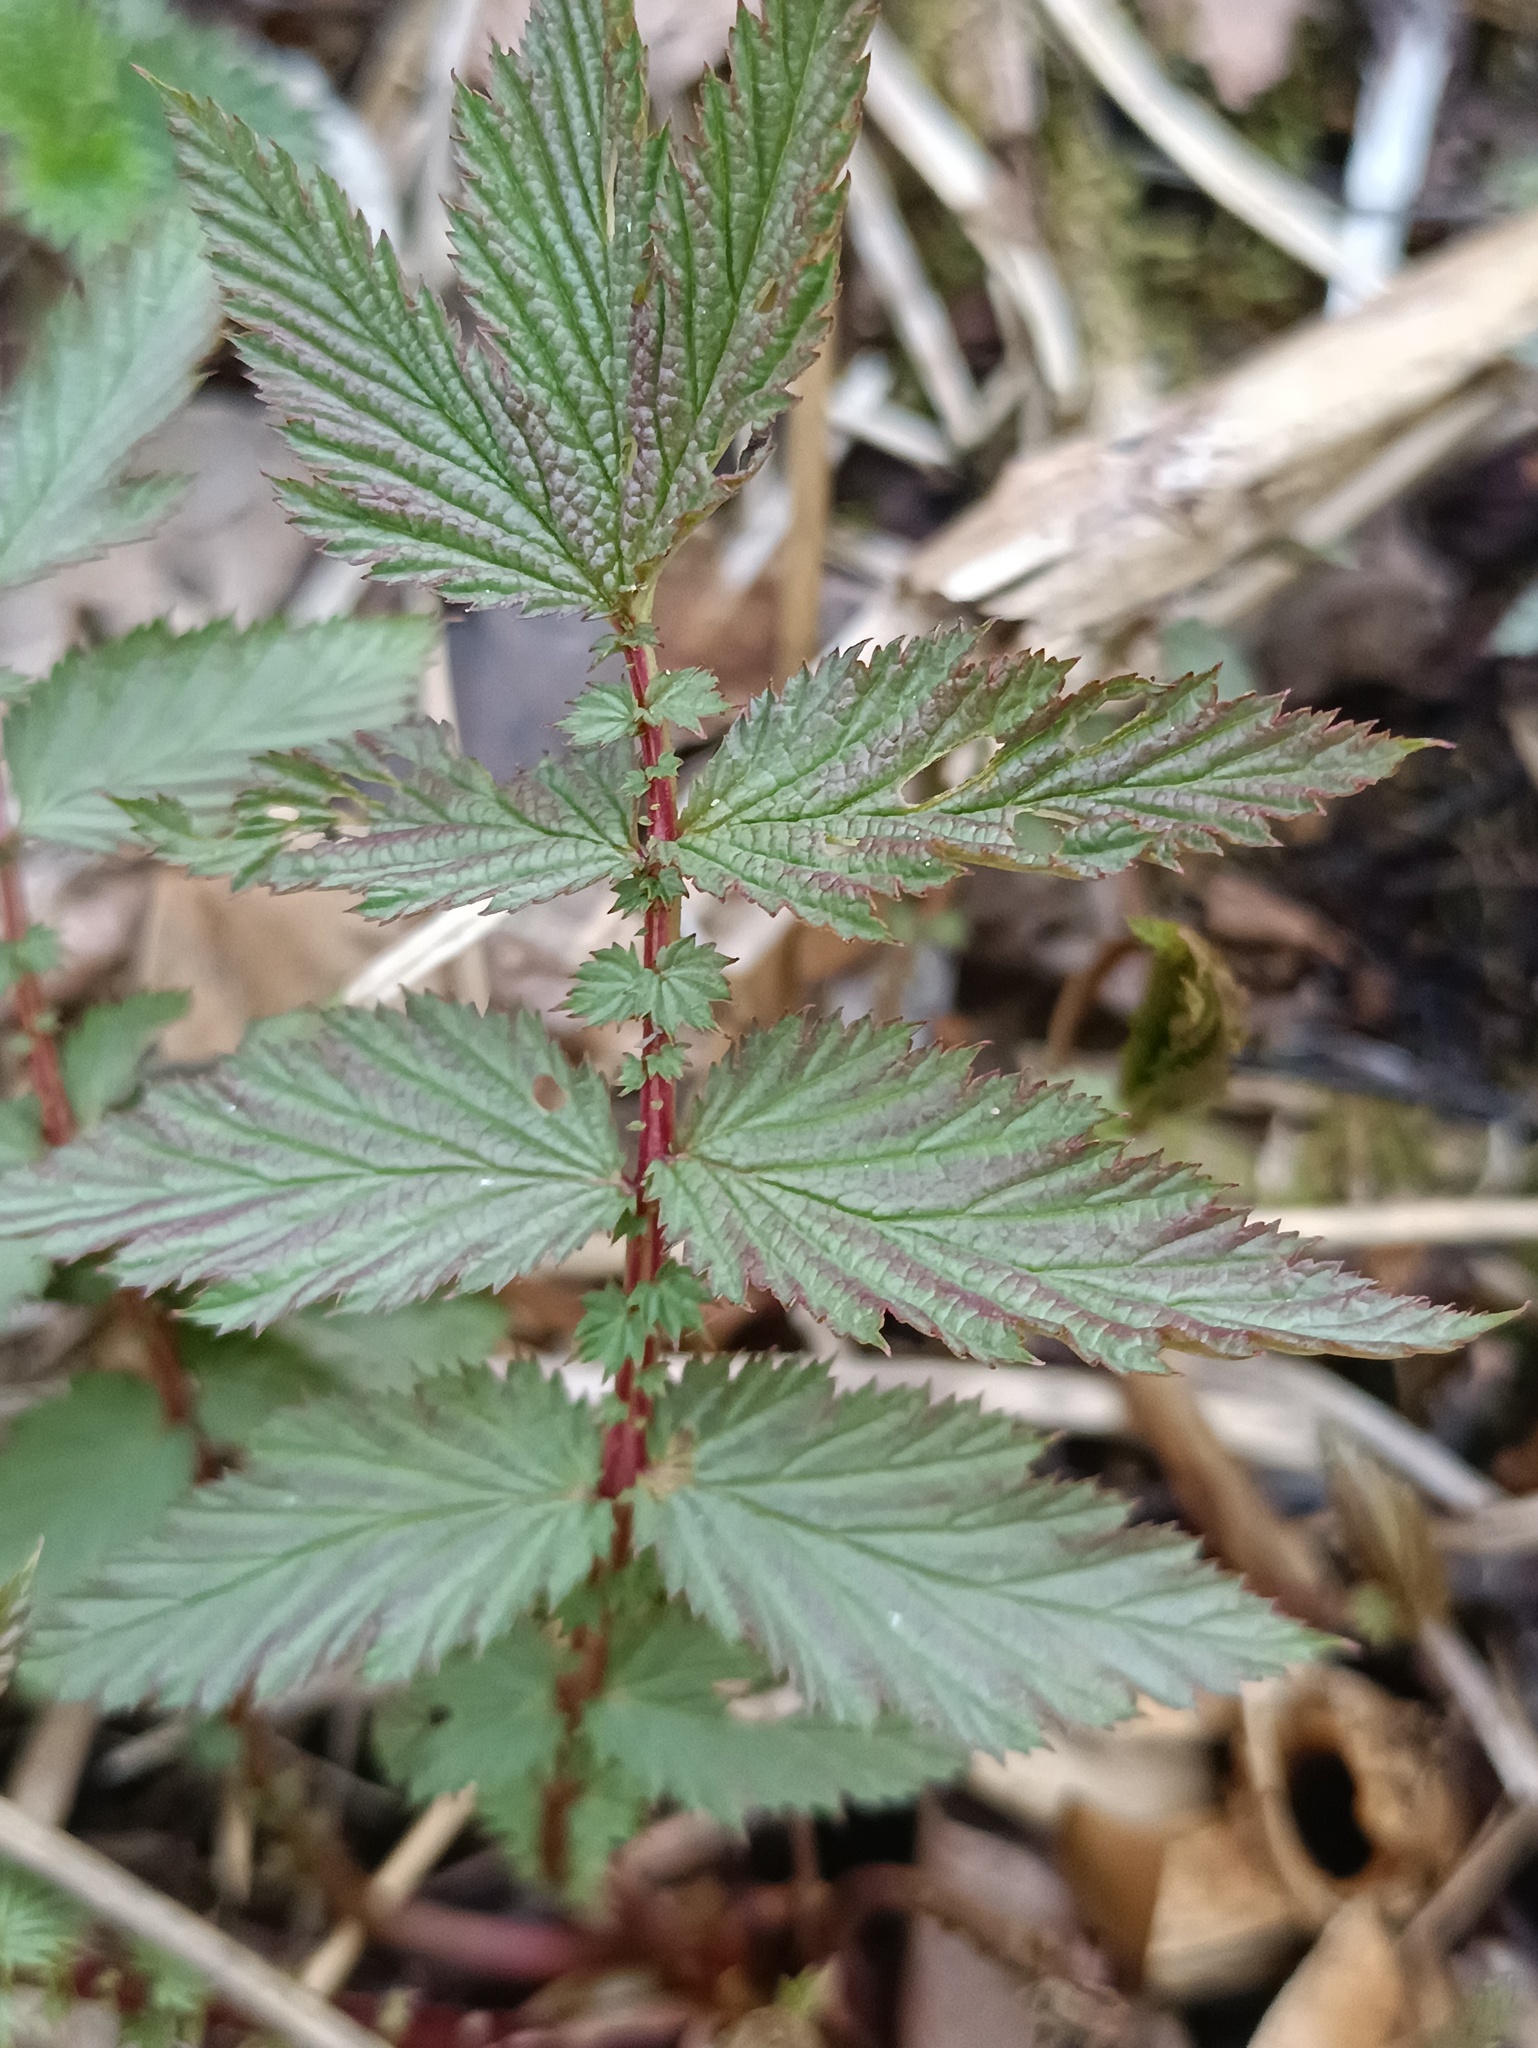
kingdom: Plantae
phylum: Tracheophyta
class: Magnoliopsida
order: Rosales
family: Rosaceae
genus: Filipendula
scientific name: Filipendula ulmaria
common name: Meadowsweet
